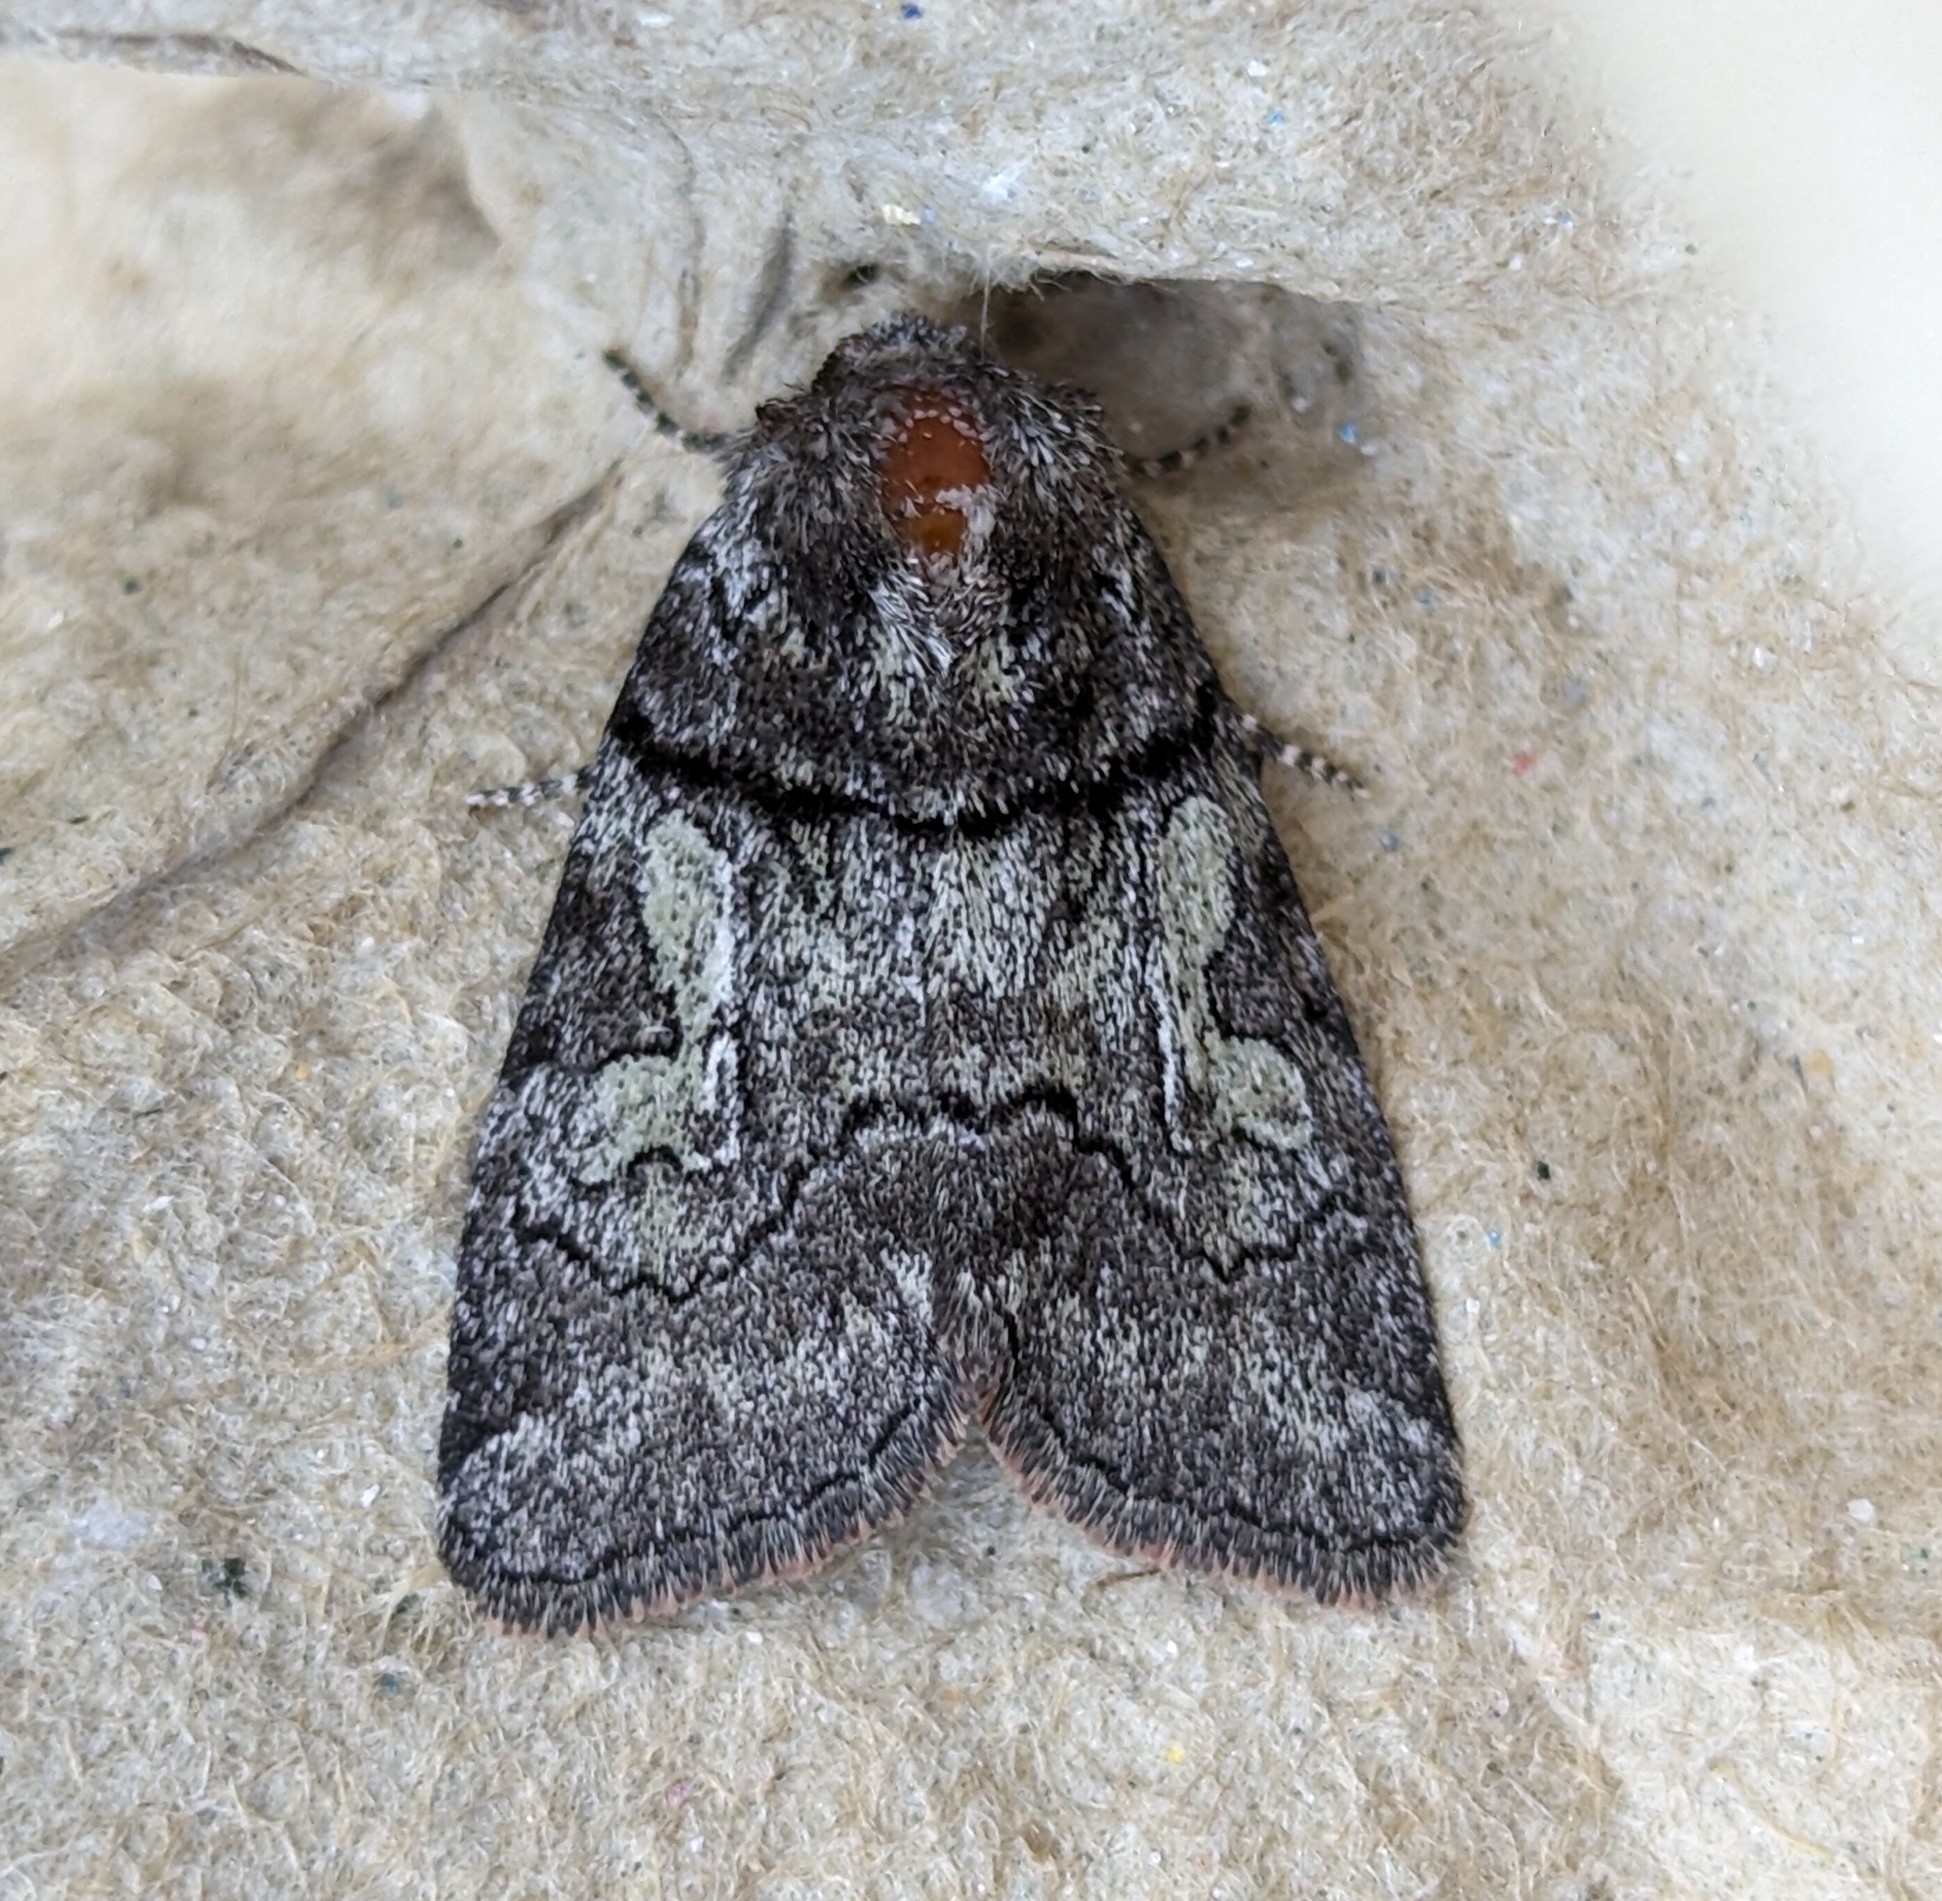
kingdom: Animalia
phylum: Arthropoda
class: Insecta
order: Lepidoptera
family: Noctuidae
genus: Cosmia
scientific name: Cosmia praeacuta
